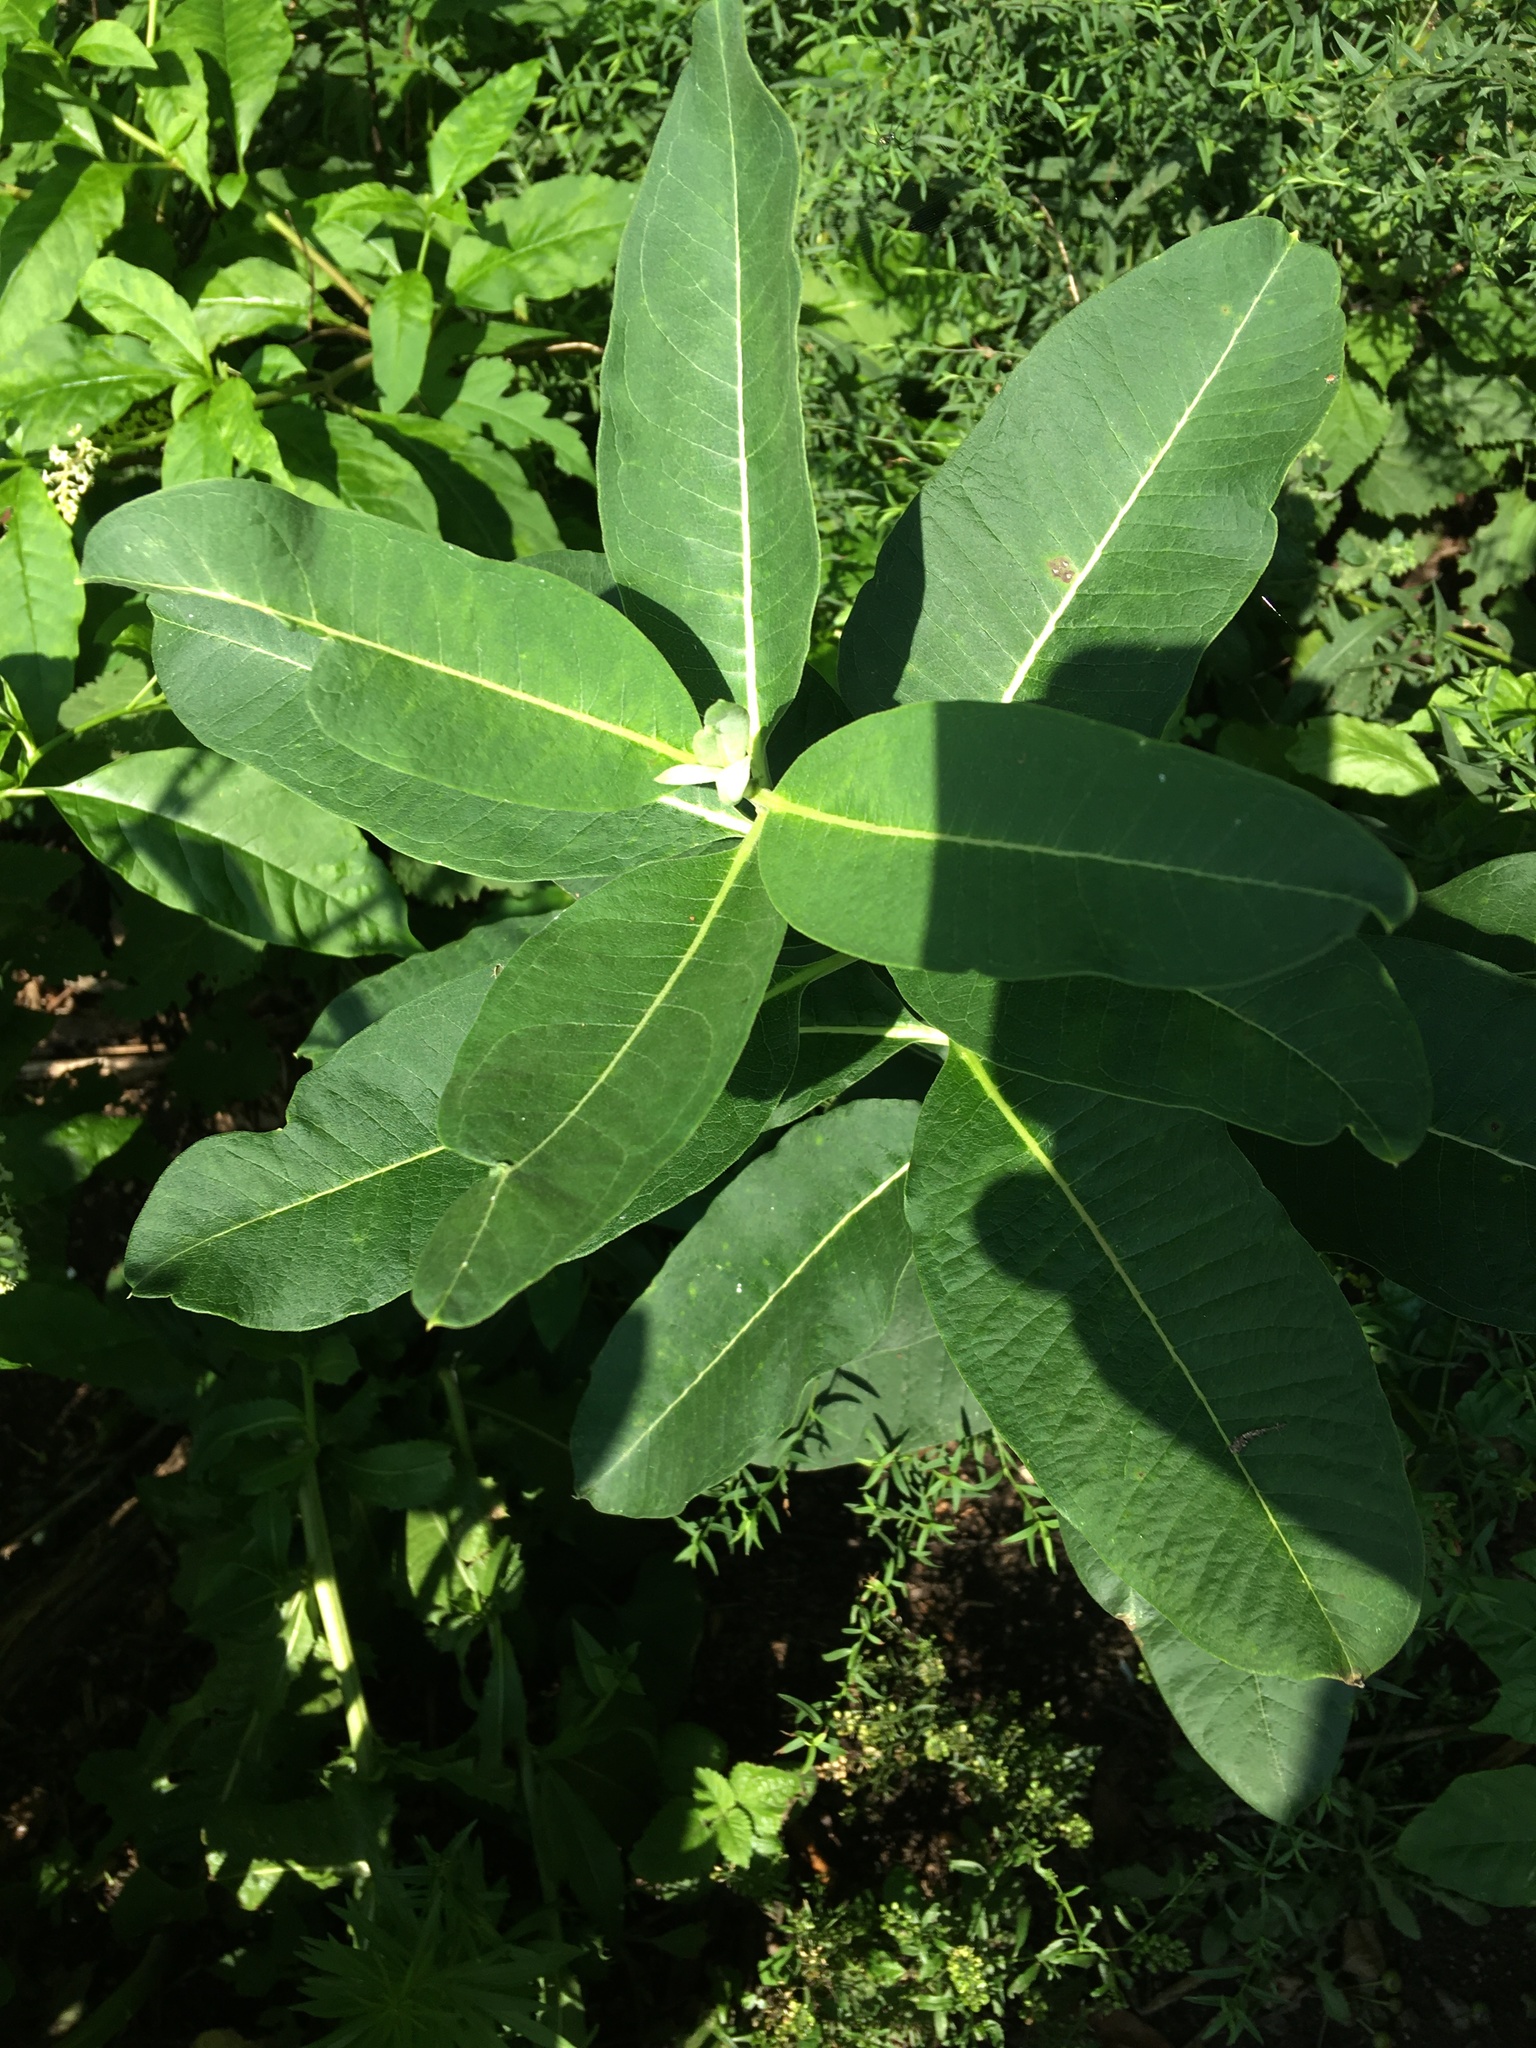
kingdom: Plantae
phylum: Tracheophyta
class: Magnoliopsida
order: Gentianales
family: Apocynaceae
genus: Asclepias
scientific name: Asclepias syriaca
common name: Common milkweed
